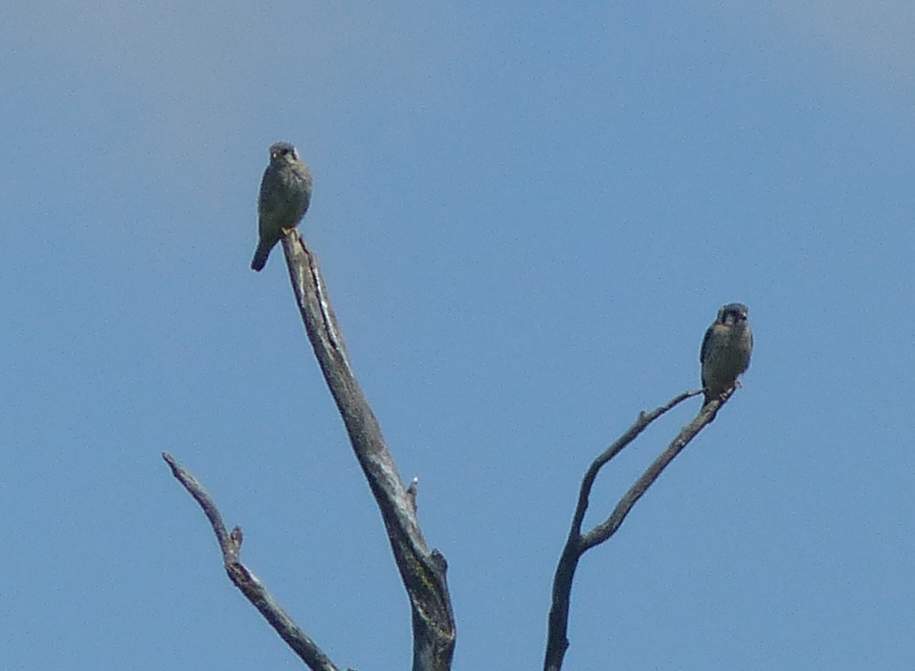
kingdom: Animalia
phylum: Chordata
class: Aves
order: Falconiformes
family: Falconidae
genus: Falco
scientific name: Falco sparverius
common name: American kestrel
